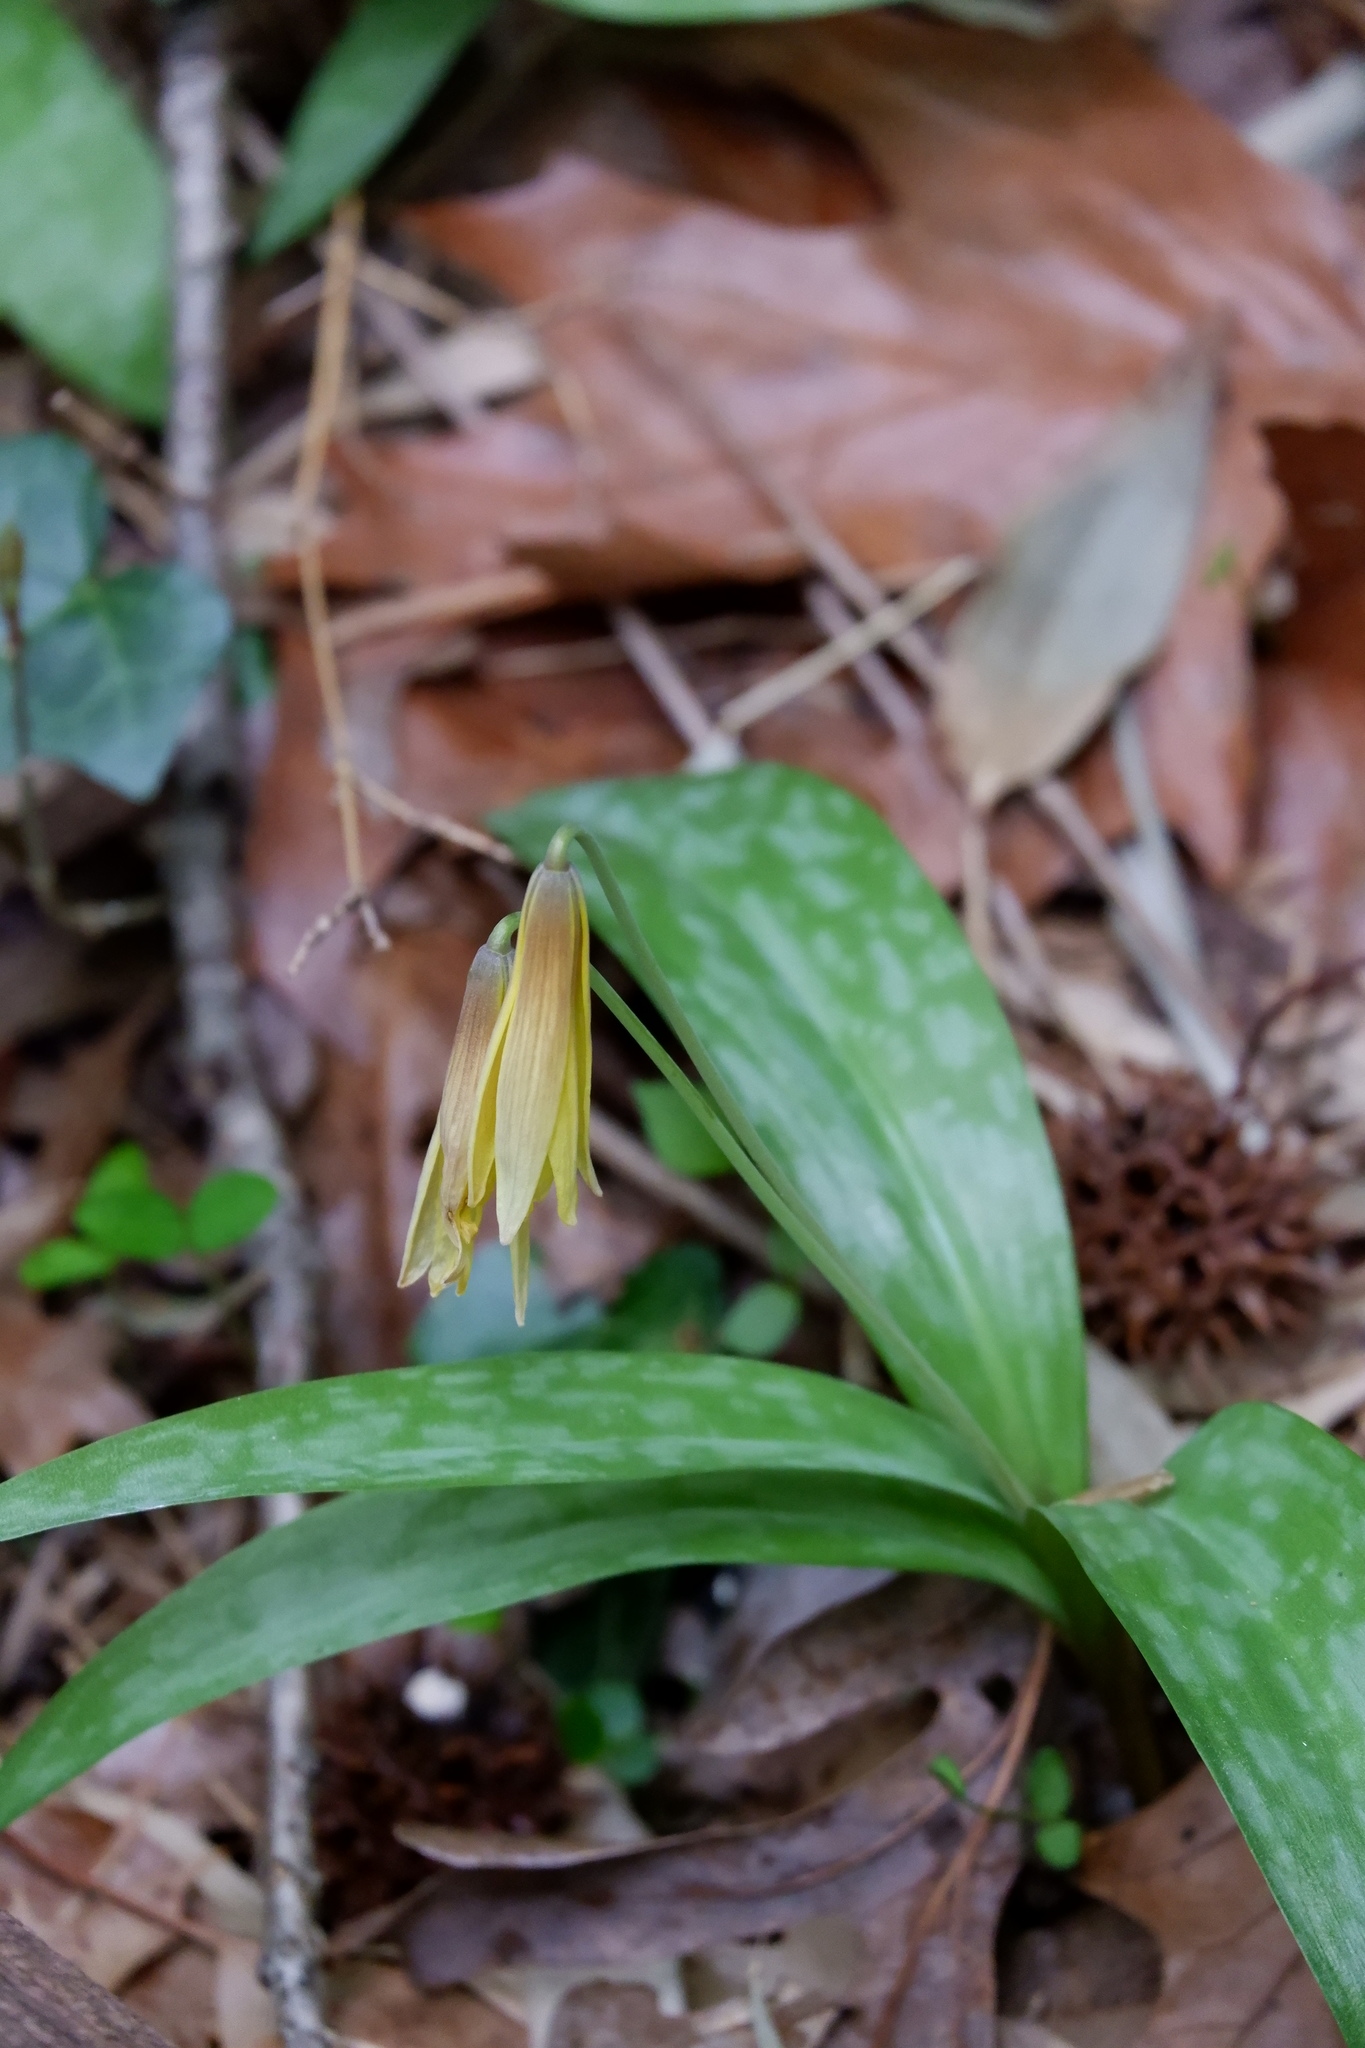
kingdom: Plantae
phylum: Tracheophyta
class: Liliopsida
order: Liliales
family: Liliaceae
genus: Erythronium
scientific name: Erythronium americanum
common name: Yellow adder's-tongue
